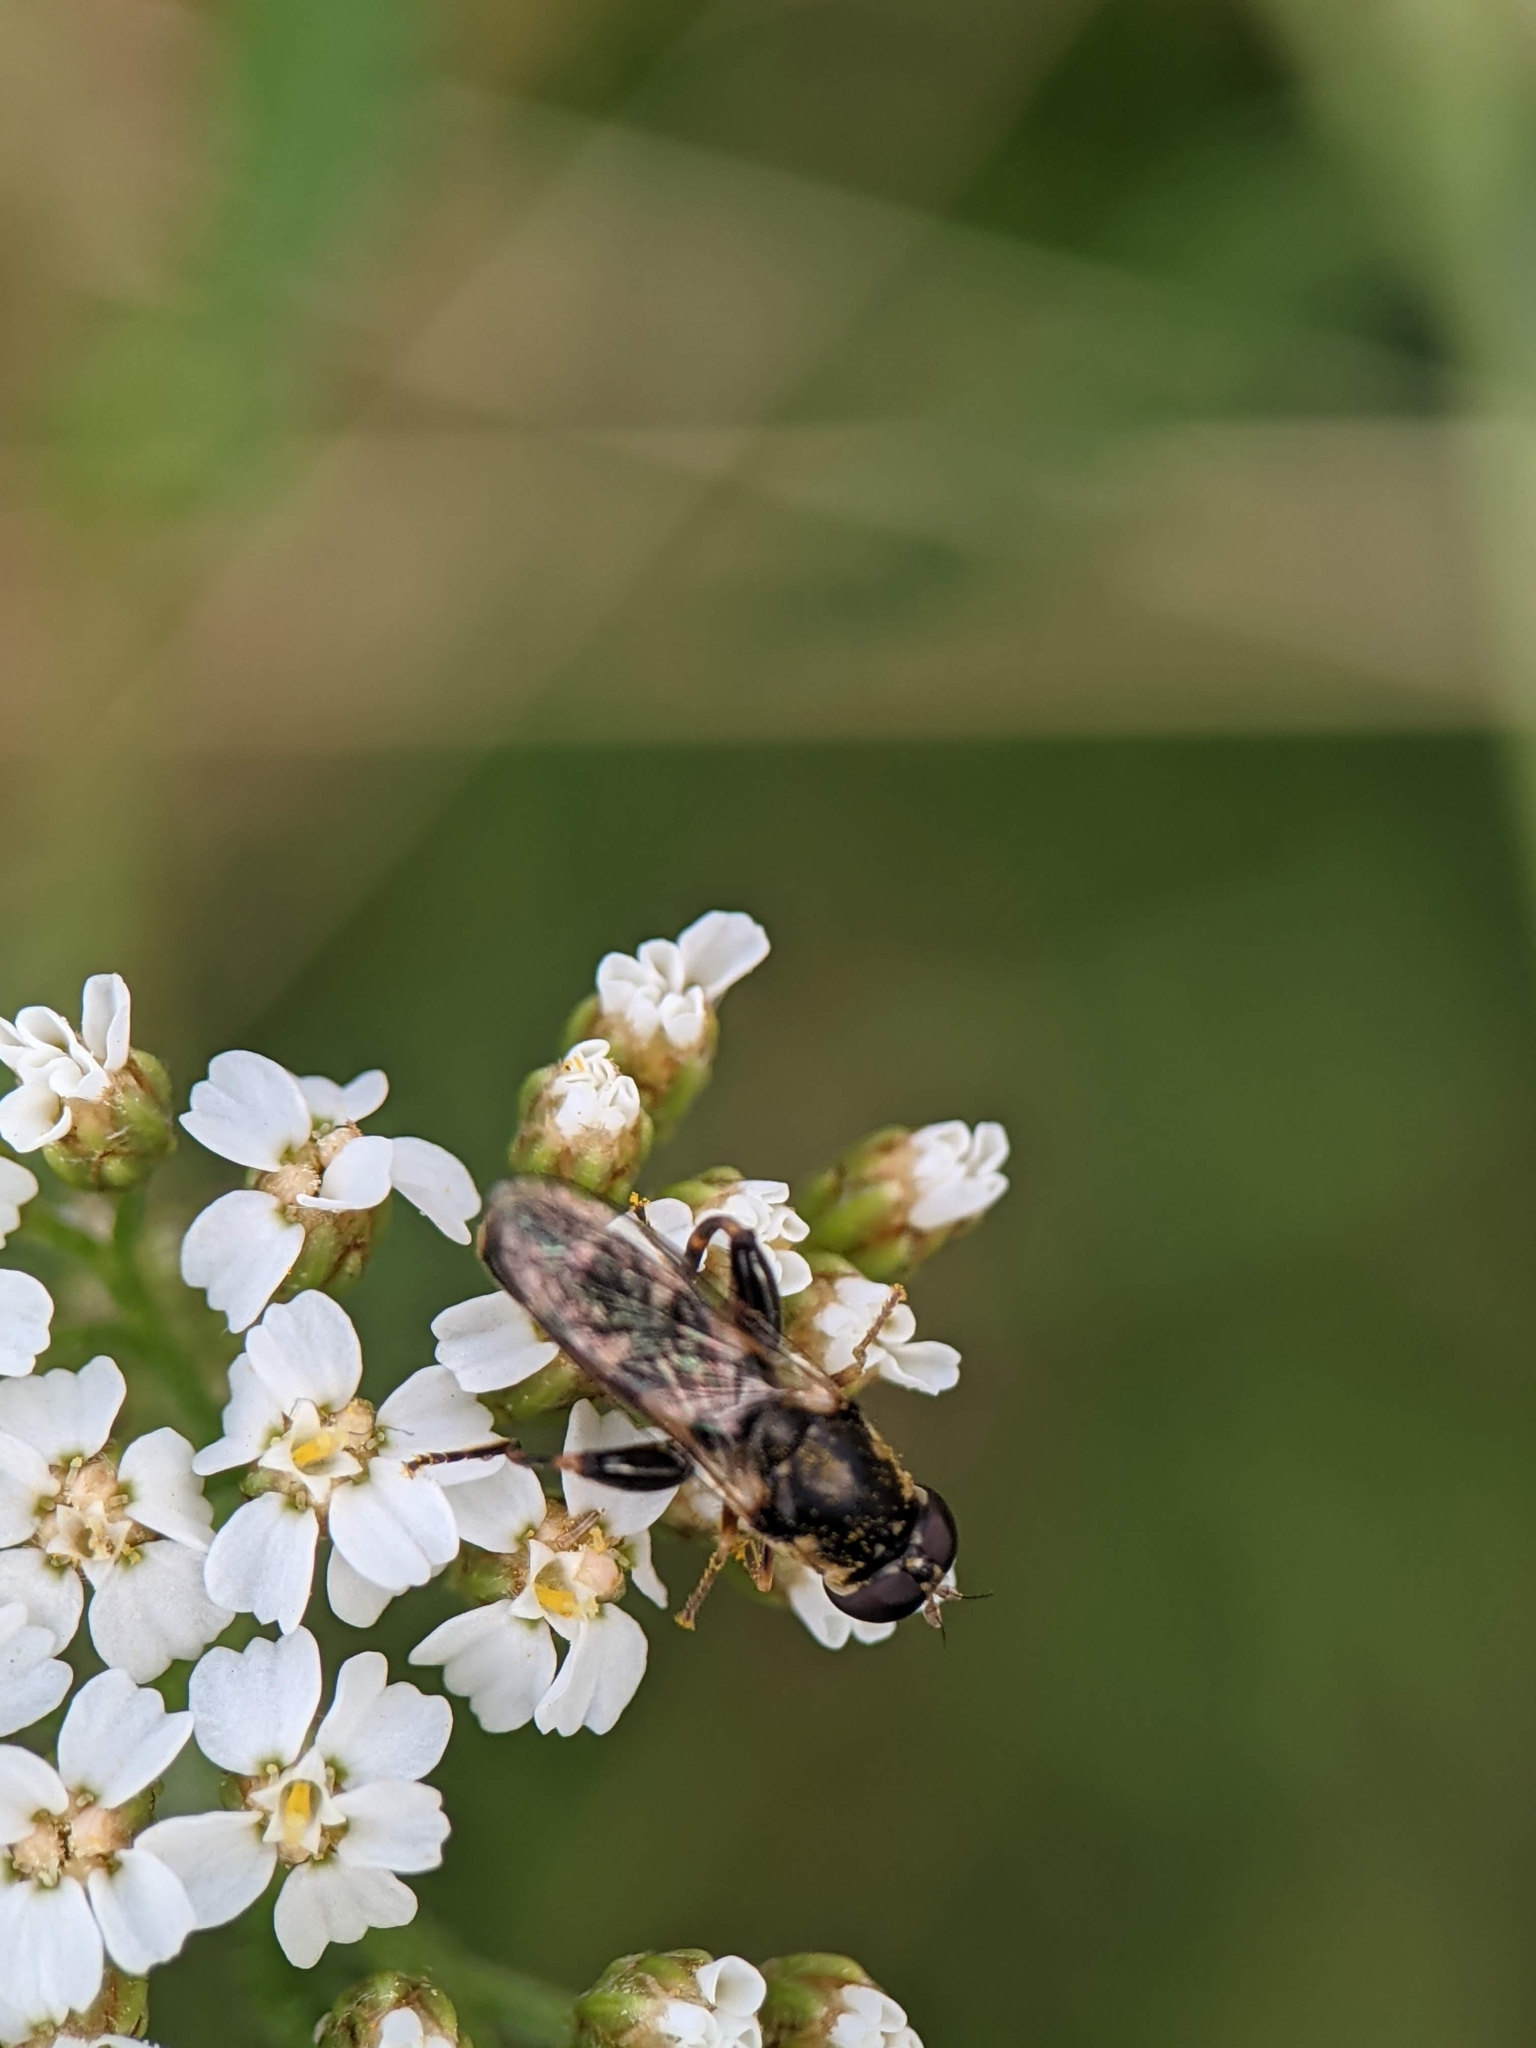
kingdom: Animalia
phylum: Arthropoda
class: Insecta
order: Diptera
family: Syrphidae
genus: Syritta
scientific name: Syritta pipiens
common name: Hover fly
